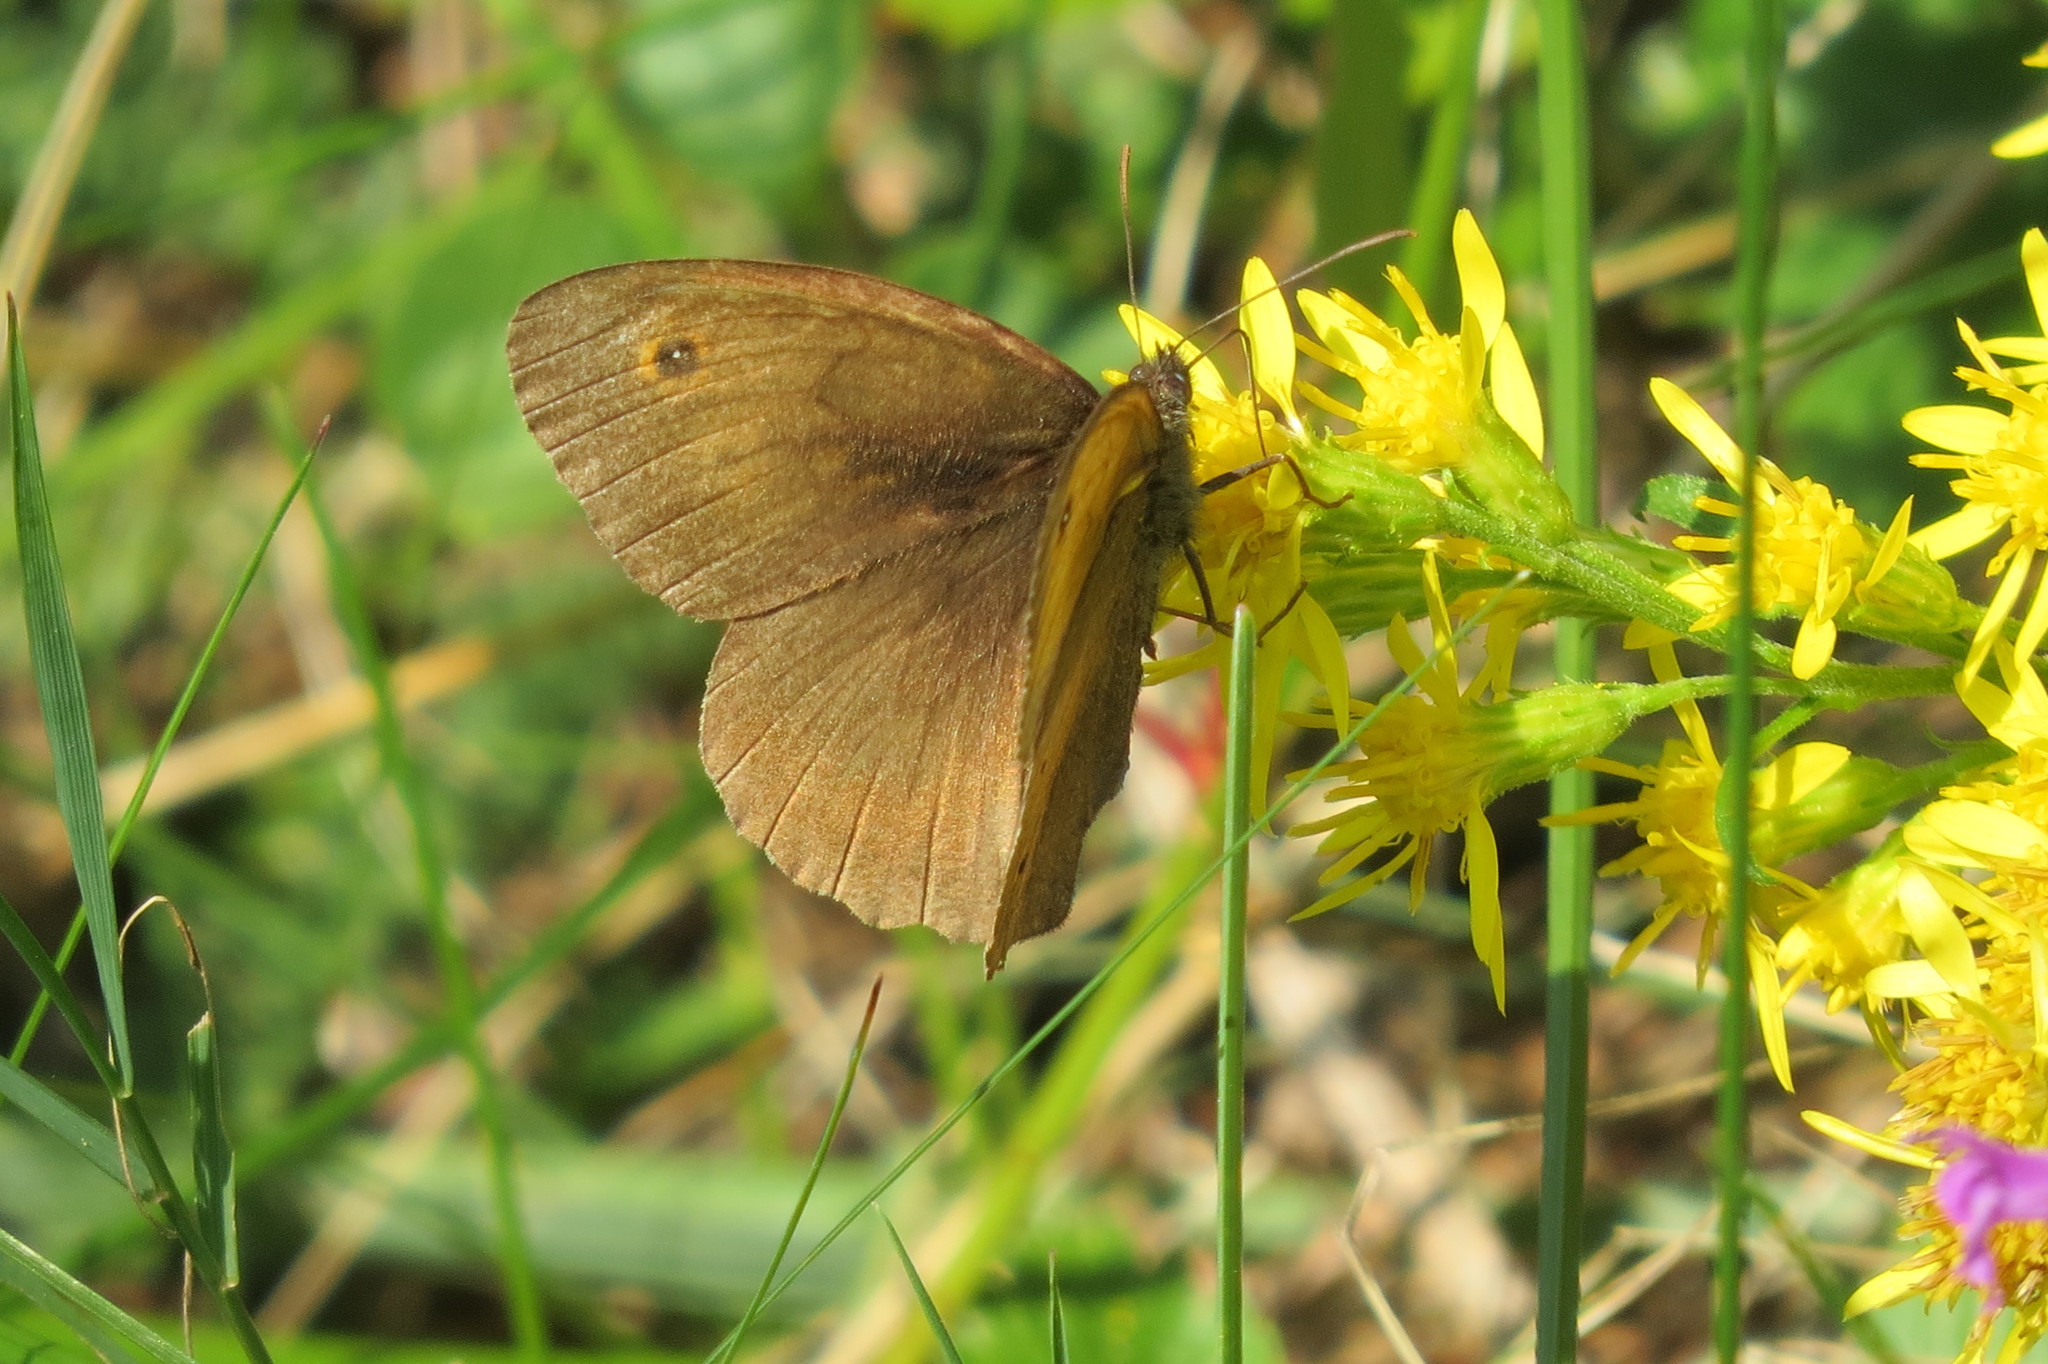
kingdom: Animalia
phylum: Arthropoda
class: Insecta
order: Lepidoptera
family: Nymphalidae
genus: Maniola
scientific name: Maniola jurtina
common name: Meadow brown
